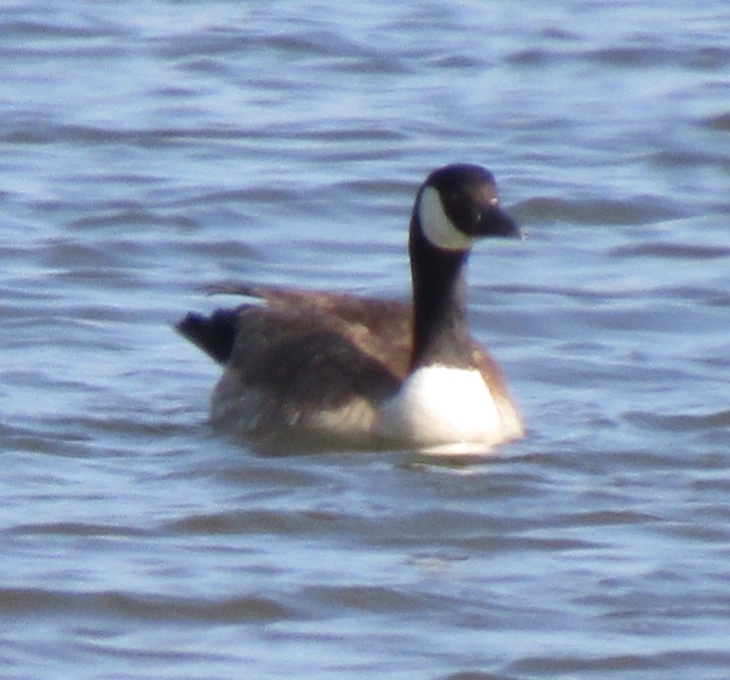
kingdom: Animalia
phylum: Chordata
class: Aves
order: Anseriformes
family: Anatidae
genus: Branta
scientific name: Branta canadensis
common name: Canada goose
